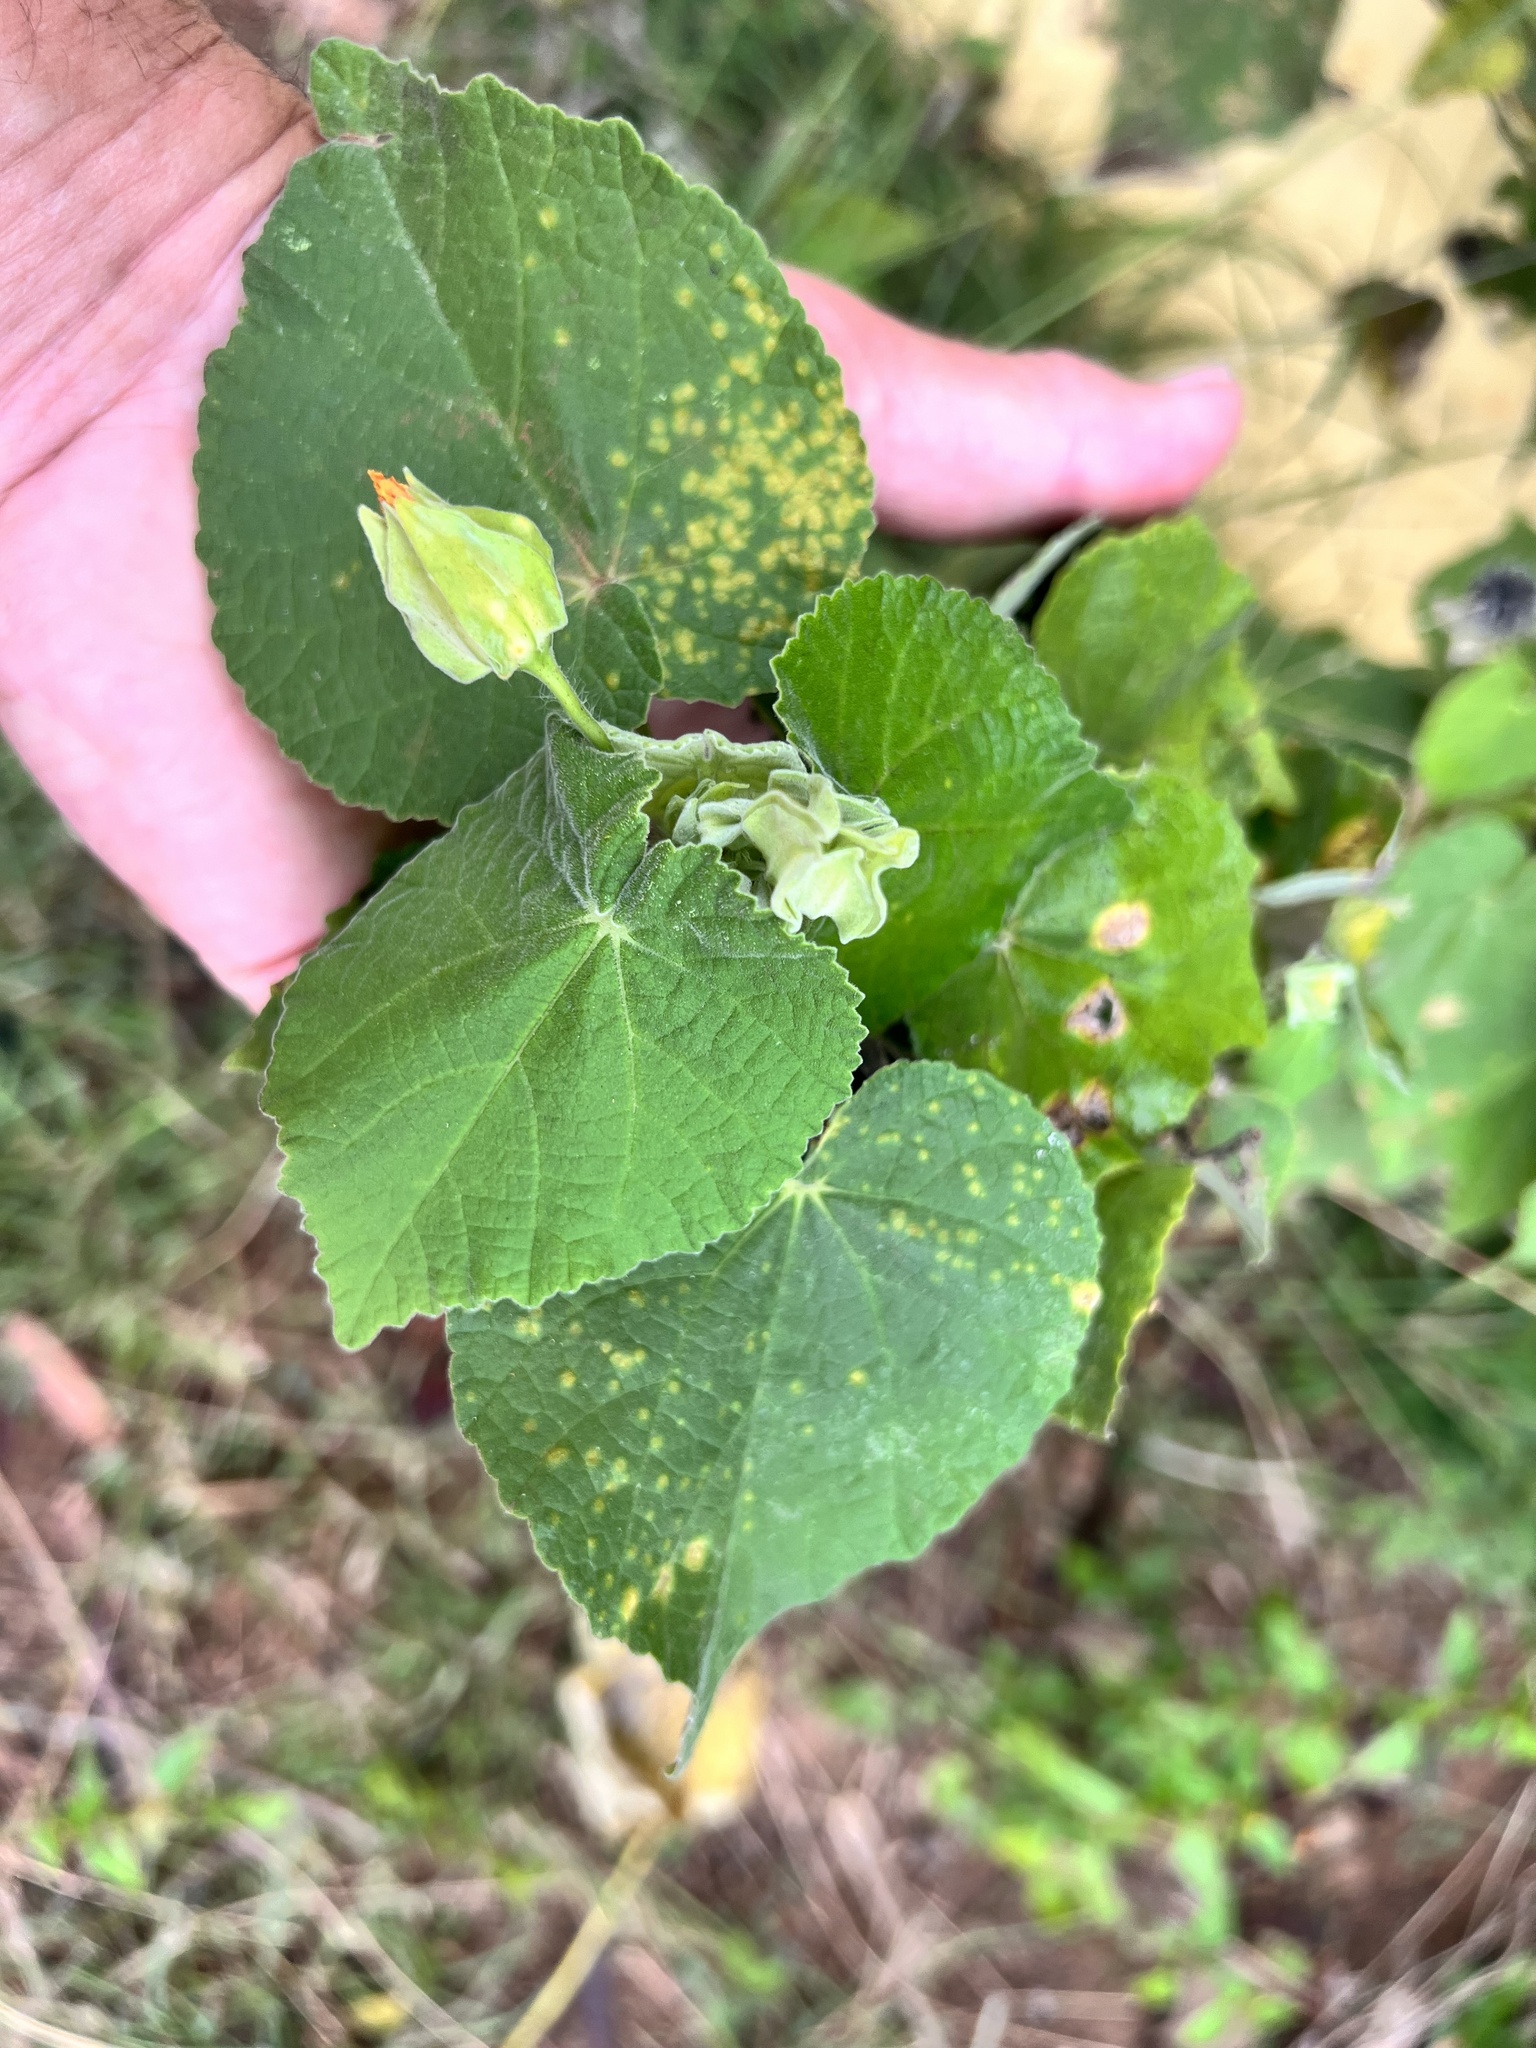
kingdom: Plantae
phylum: Tracheophyta
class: Magnoliopsida
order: Malvales
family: Malvaceae
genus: Abutilon
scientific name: Abutilon grandifolium
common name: Hairy abutilon
